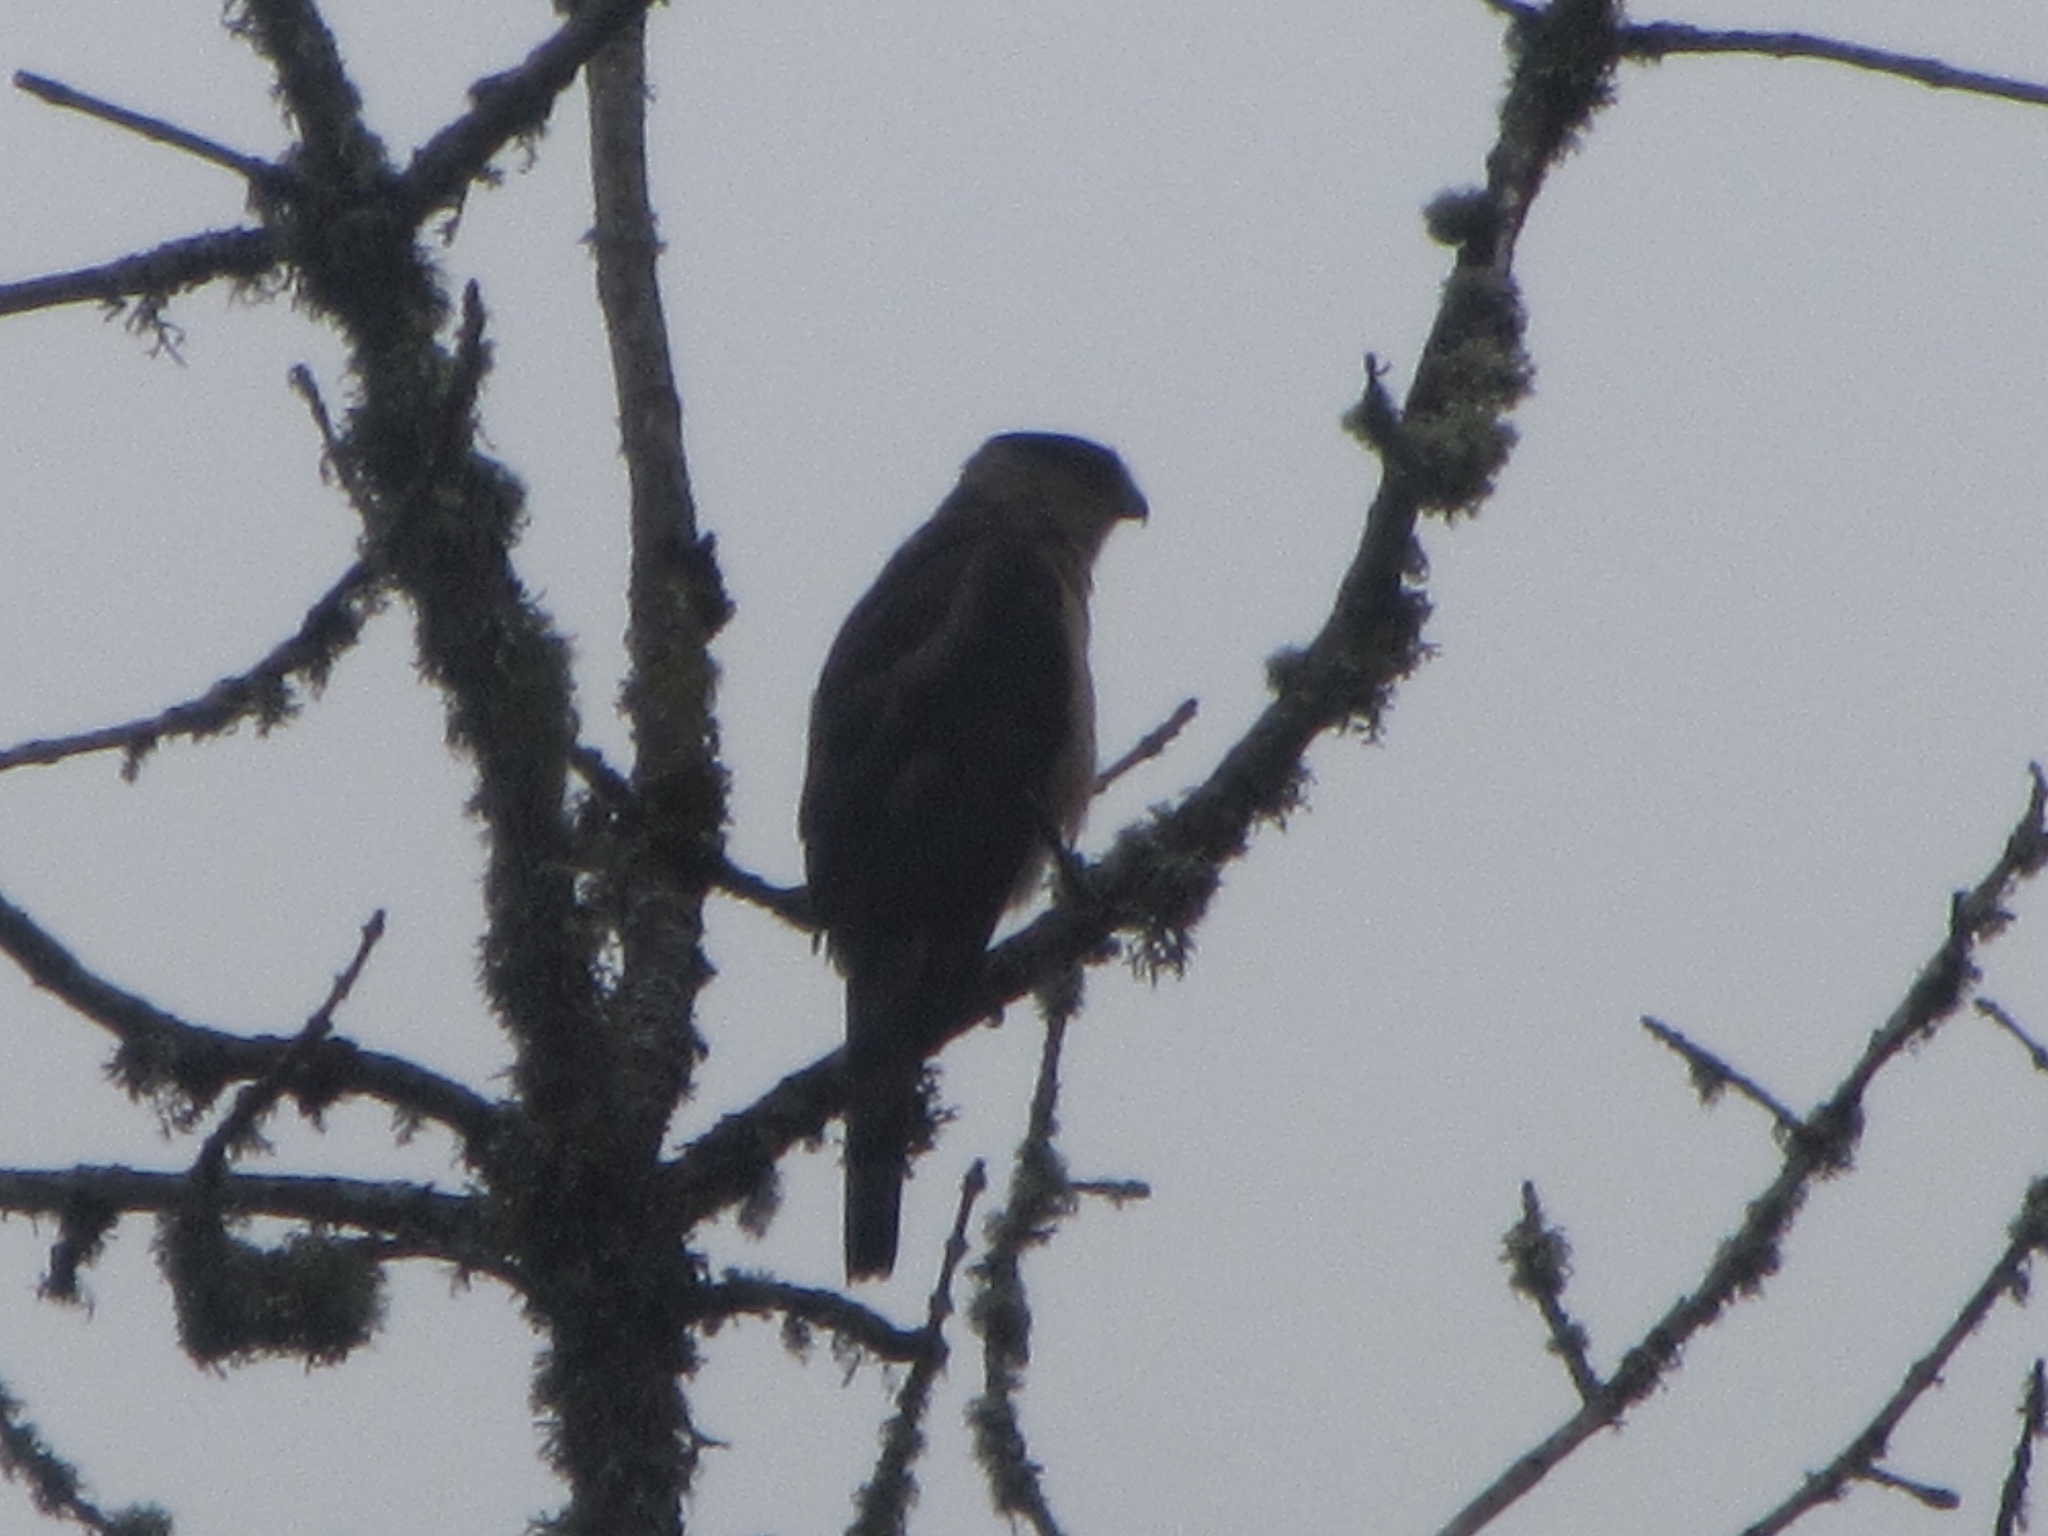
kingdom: Animalia
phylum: Chordata
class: Aves
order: Accipitriformes
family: Accipitridae
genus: Accipiter
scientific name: Accipiter cooperii
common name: Cooper's hawk
